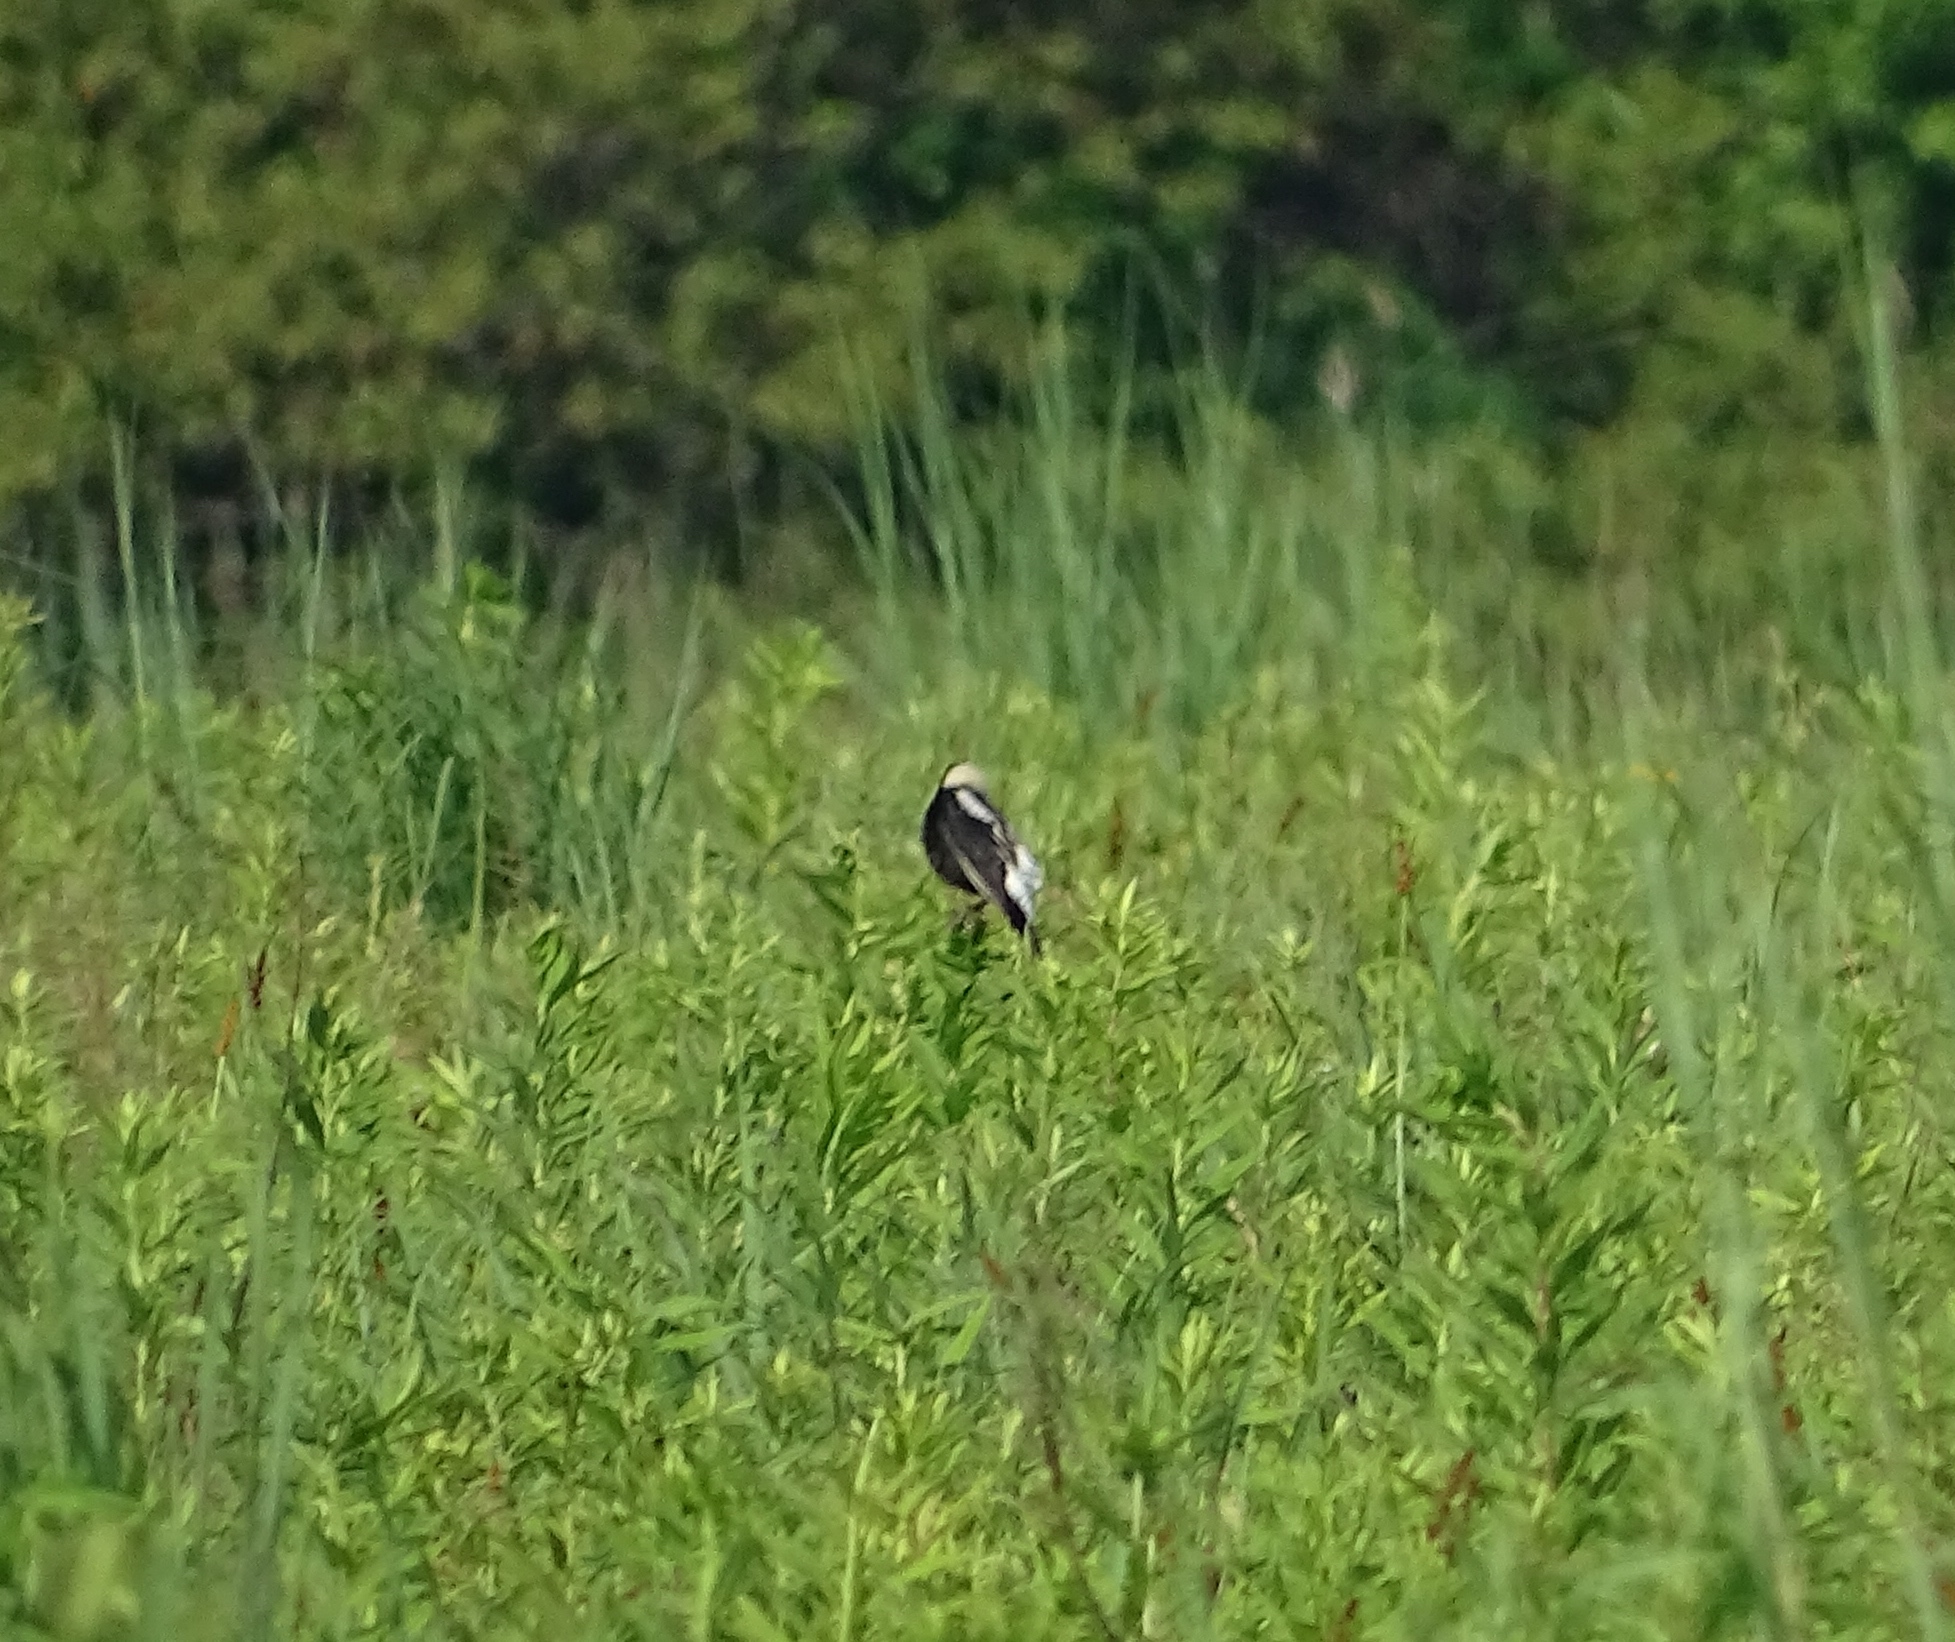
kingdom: Animalia
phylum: Chordata
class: Aves
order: Passeriformes
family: Icteridae
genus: Dolichonyx
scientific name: Dolichonyx oryzivorus
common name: Bobolink
